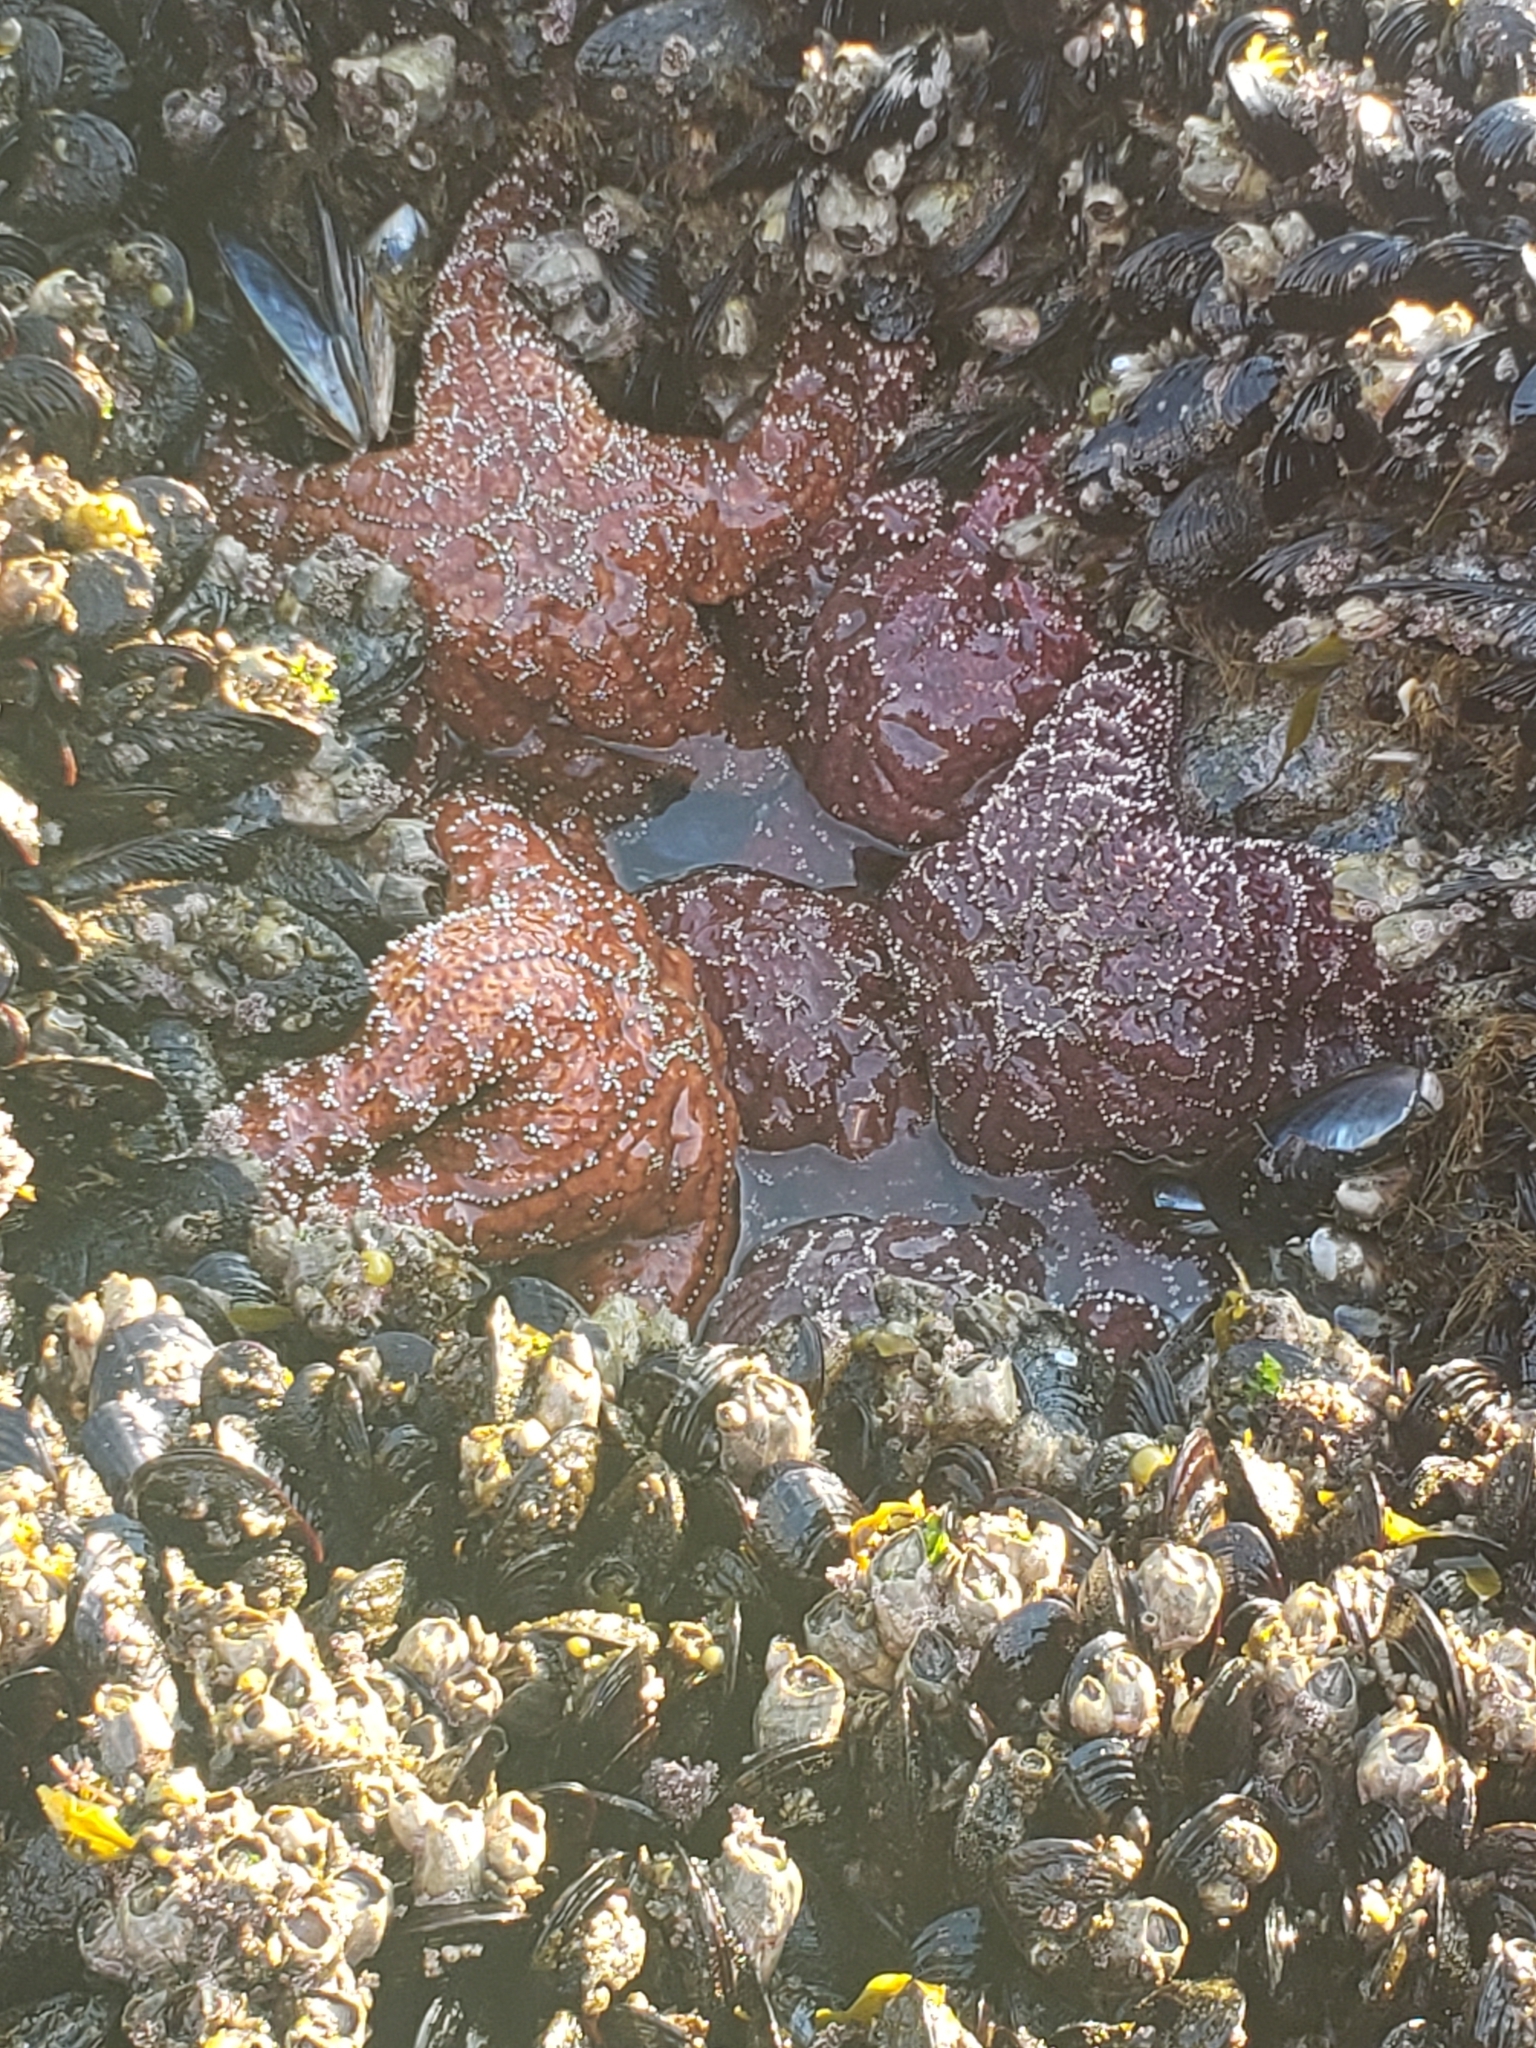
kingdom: Animalia
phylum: Echinodermata
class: Asteroidea
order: Forcipulatida
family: Asteriidae
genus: Pisaster
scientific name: Pisaster ochraceus
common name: Ochre stars
